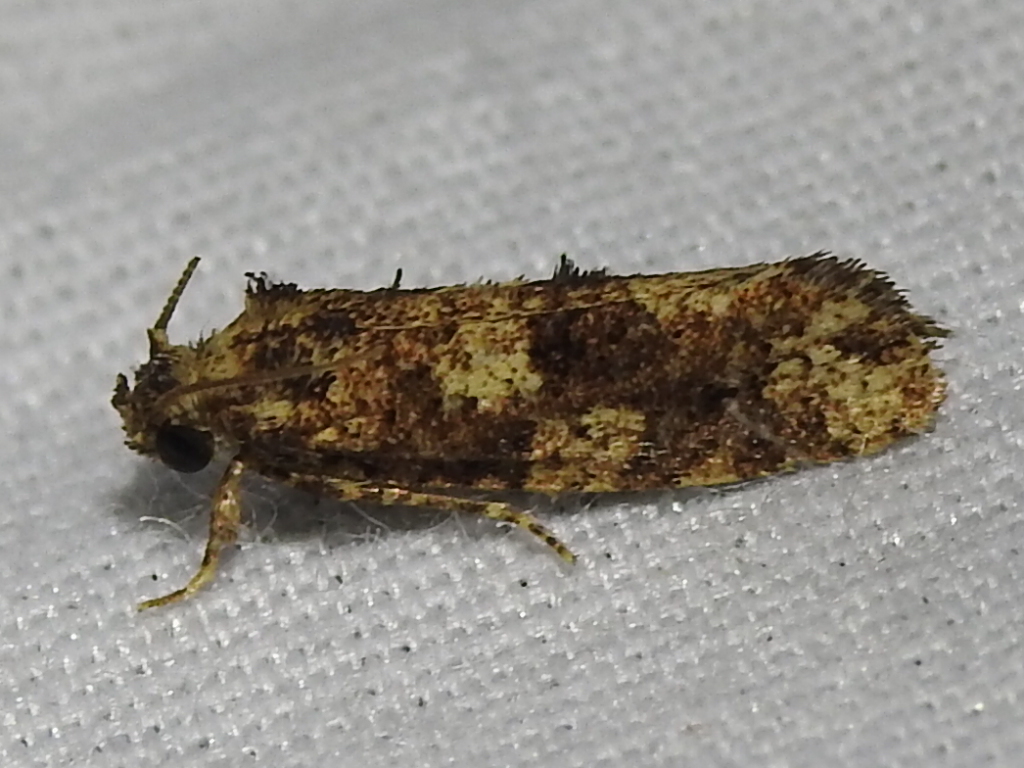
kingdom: Animalia
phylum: Arthropoda
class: Insecta
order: Lepidoptera
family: Tineidae
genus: Acrolophus
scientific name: Acrolophus cressoni
